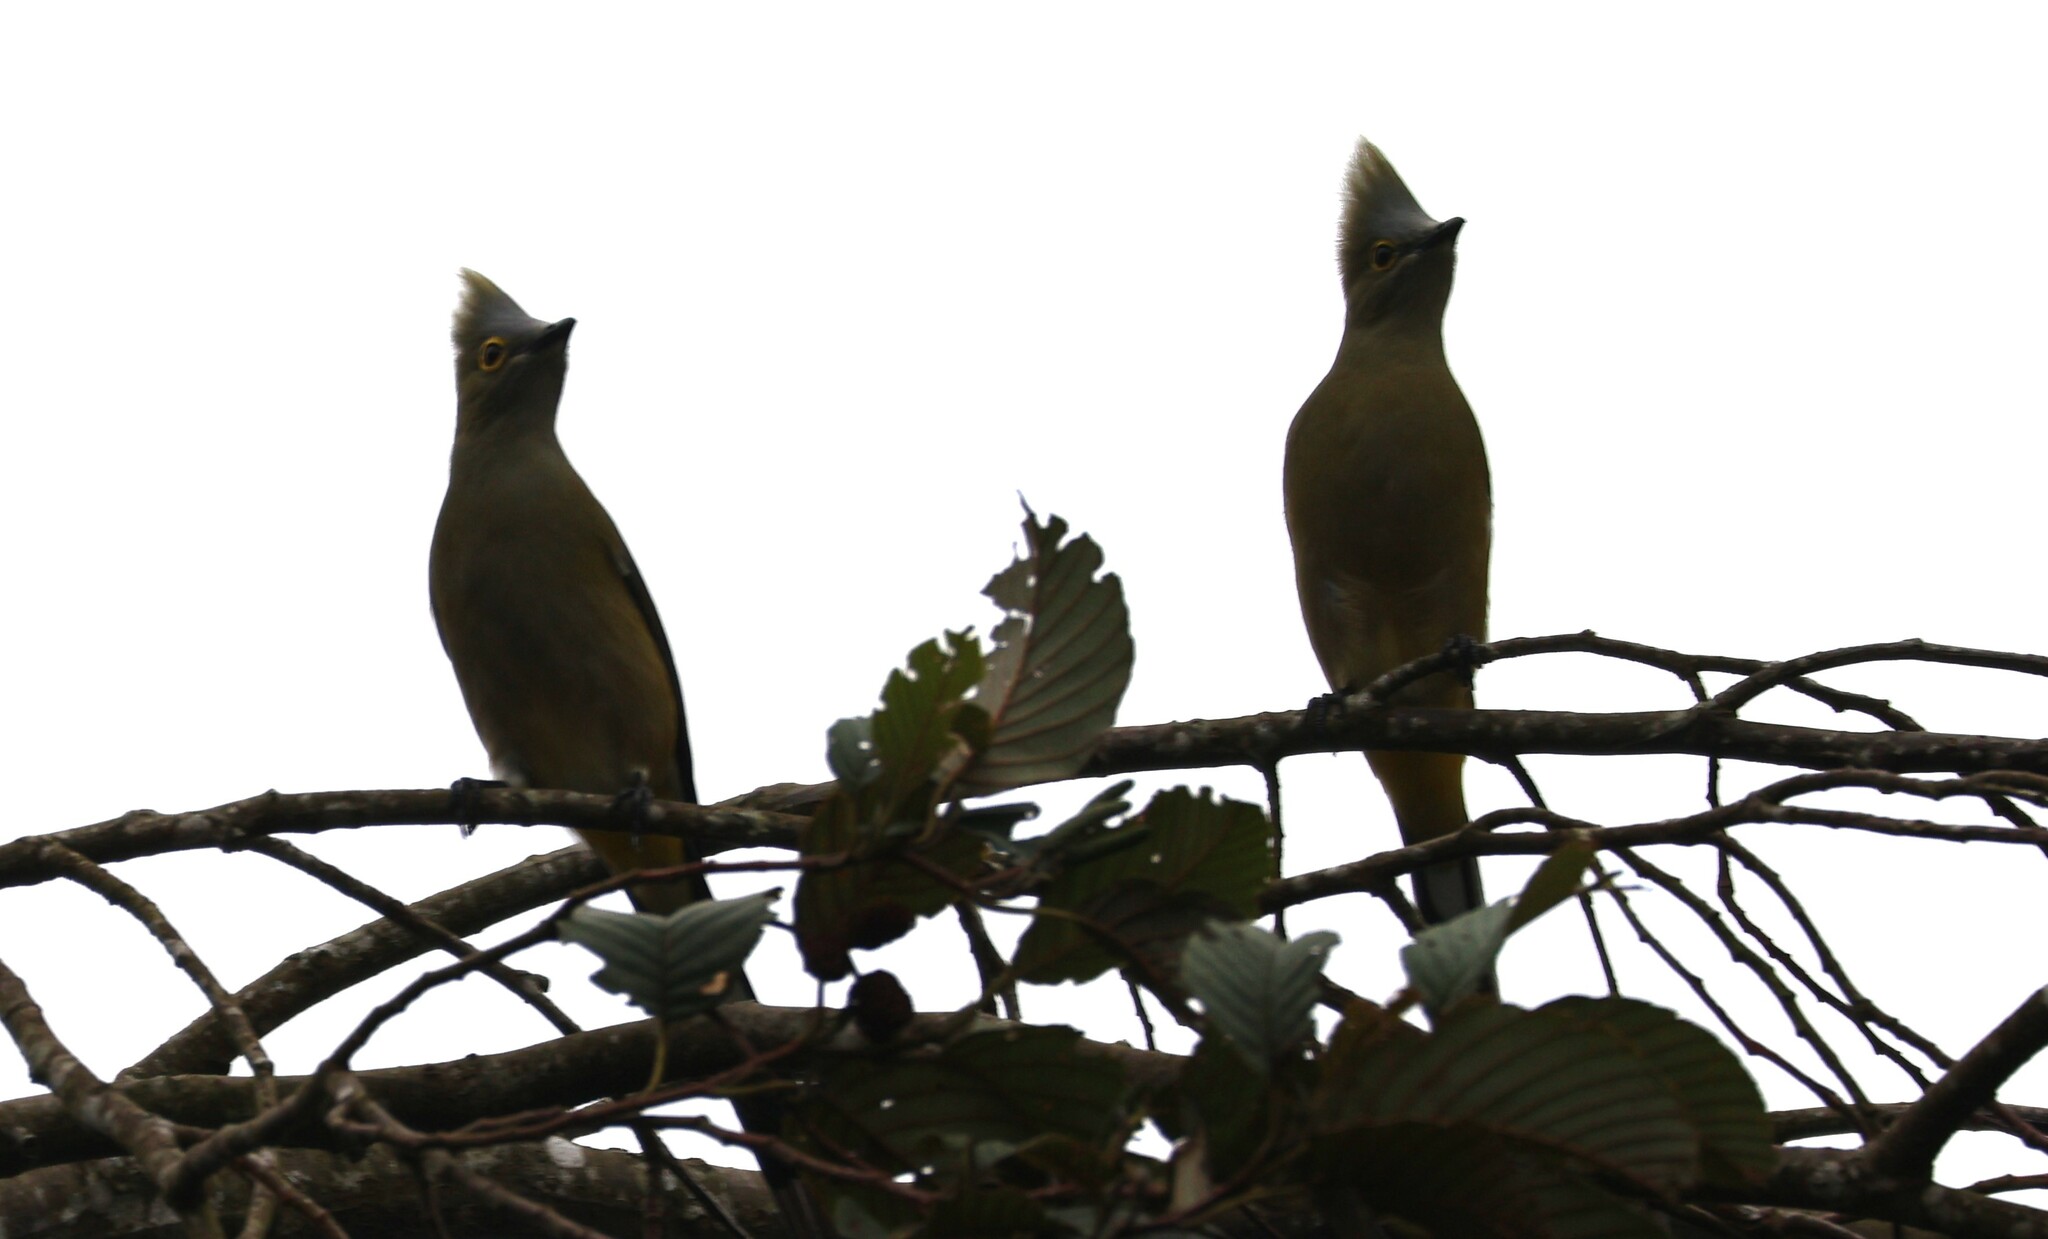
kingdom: Animalia
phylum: Chordata
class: Aves
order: Passeriformes
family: Ptilogonatidae
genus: Ptilogonys
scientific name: Ptilogonys caudatus
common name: Long-tailed silky-flycatcher
